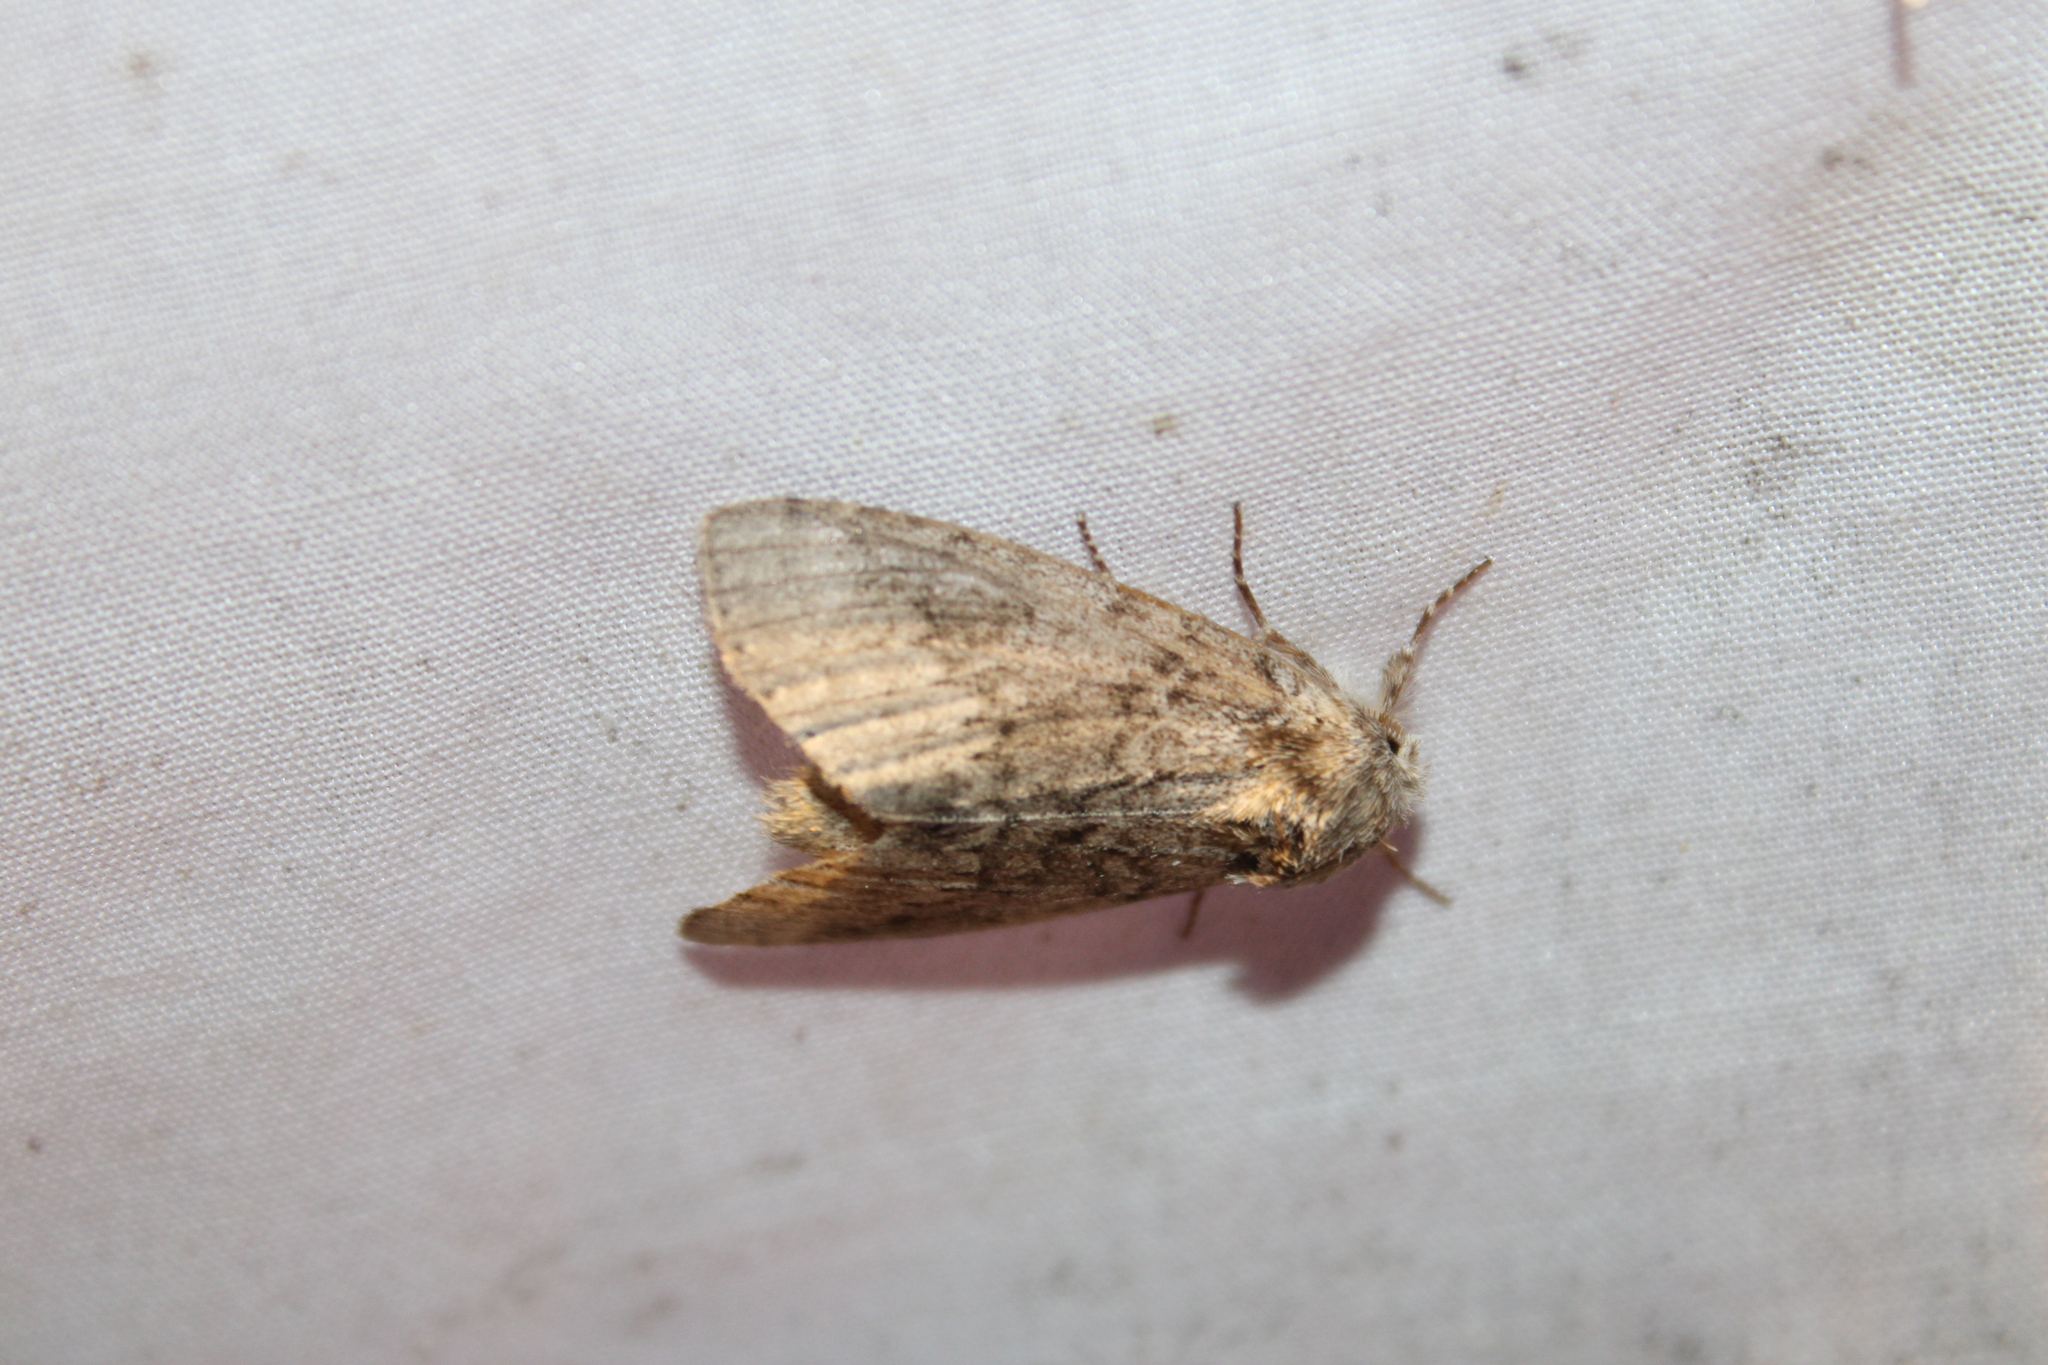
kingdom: Animalia
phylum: Arthropoda
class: Insecta
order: Lepidoptera
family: Notodontidae
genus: Lochmaeus
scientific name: Lochmaeus manteo
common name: Variable oakleaf caterpillar moth
